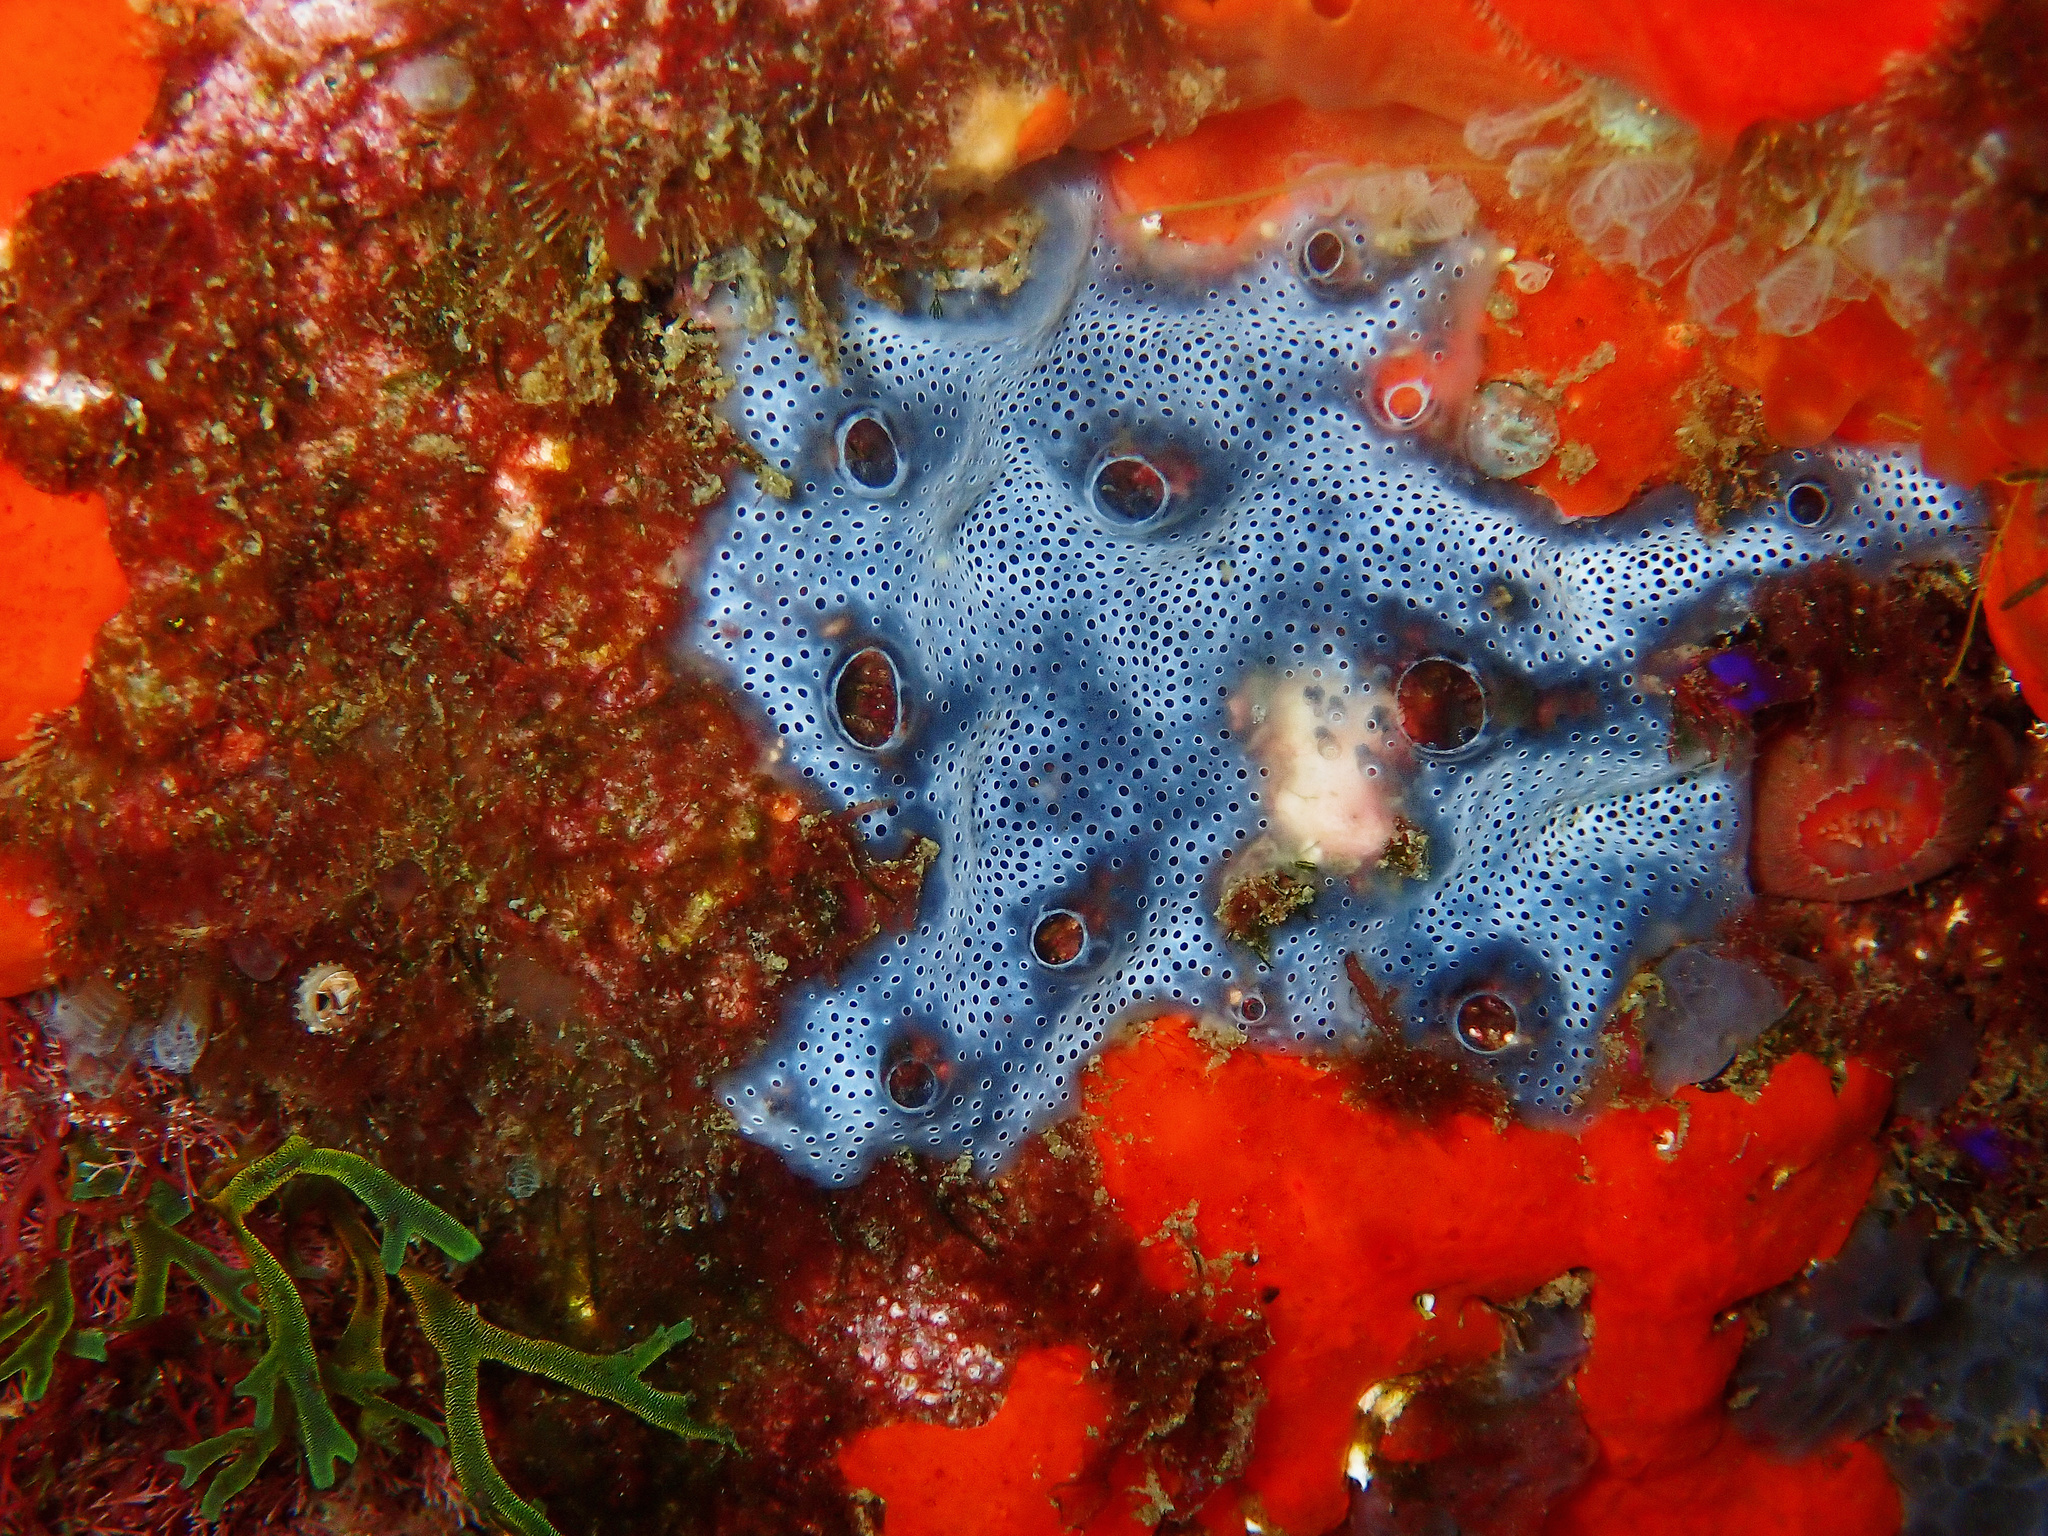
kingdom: Animalia
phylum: Chordata
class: Ascidiacea
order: Aplousobranchia
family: Didemnidae
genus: Diplosoma
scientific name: Diplosoma spongiforme
